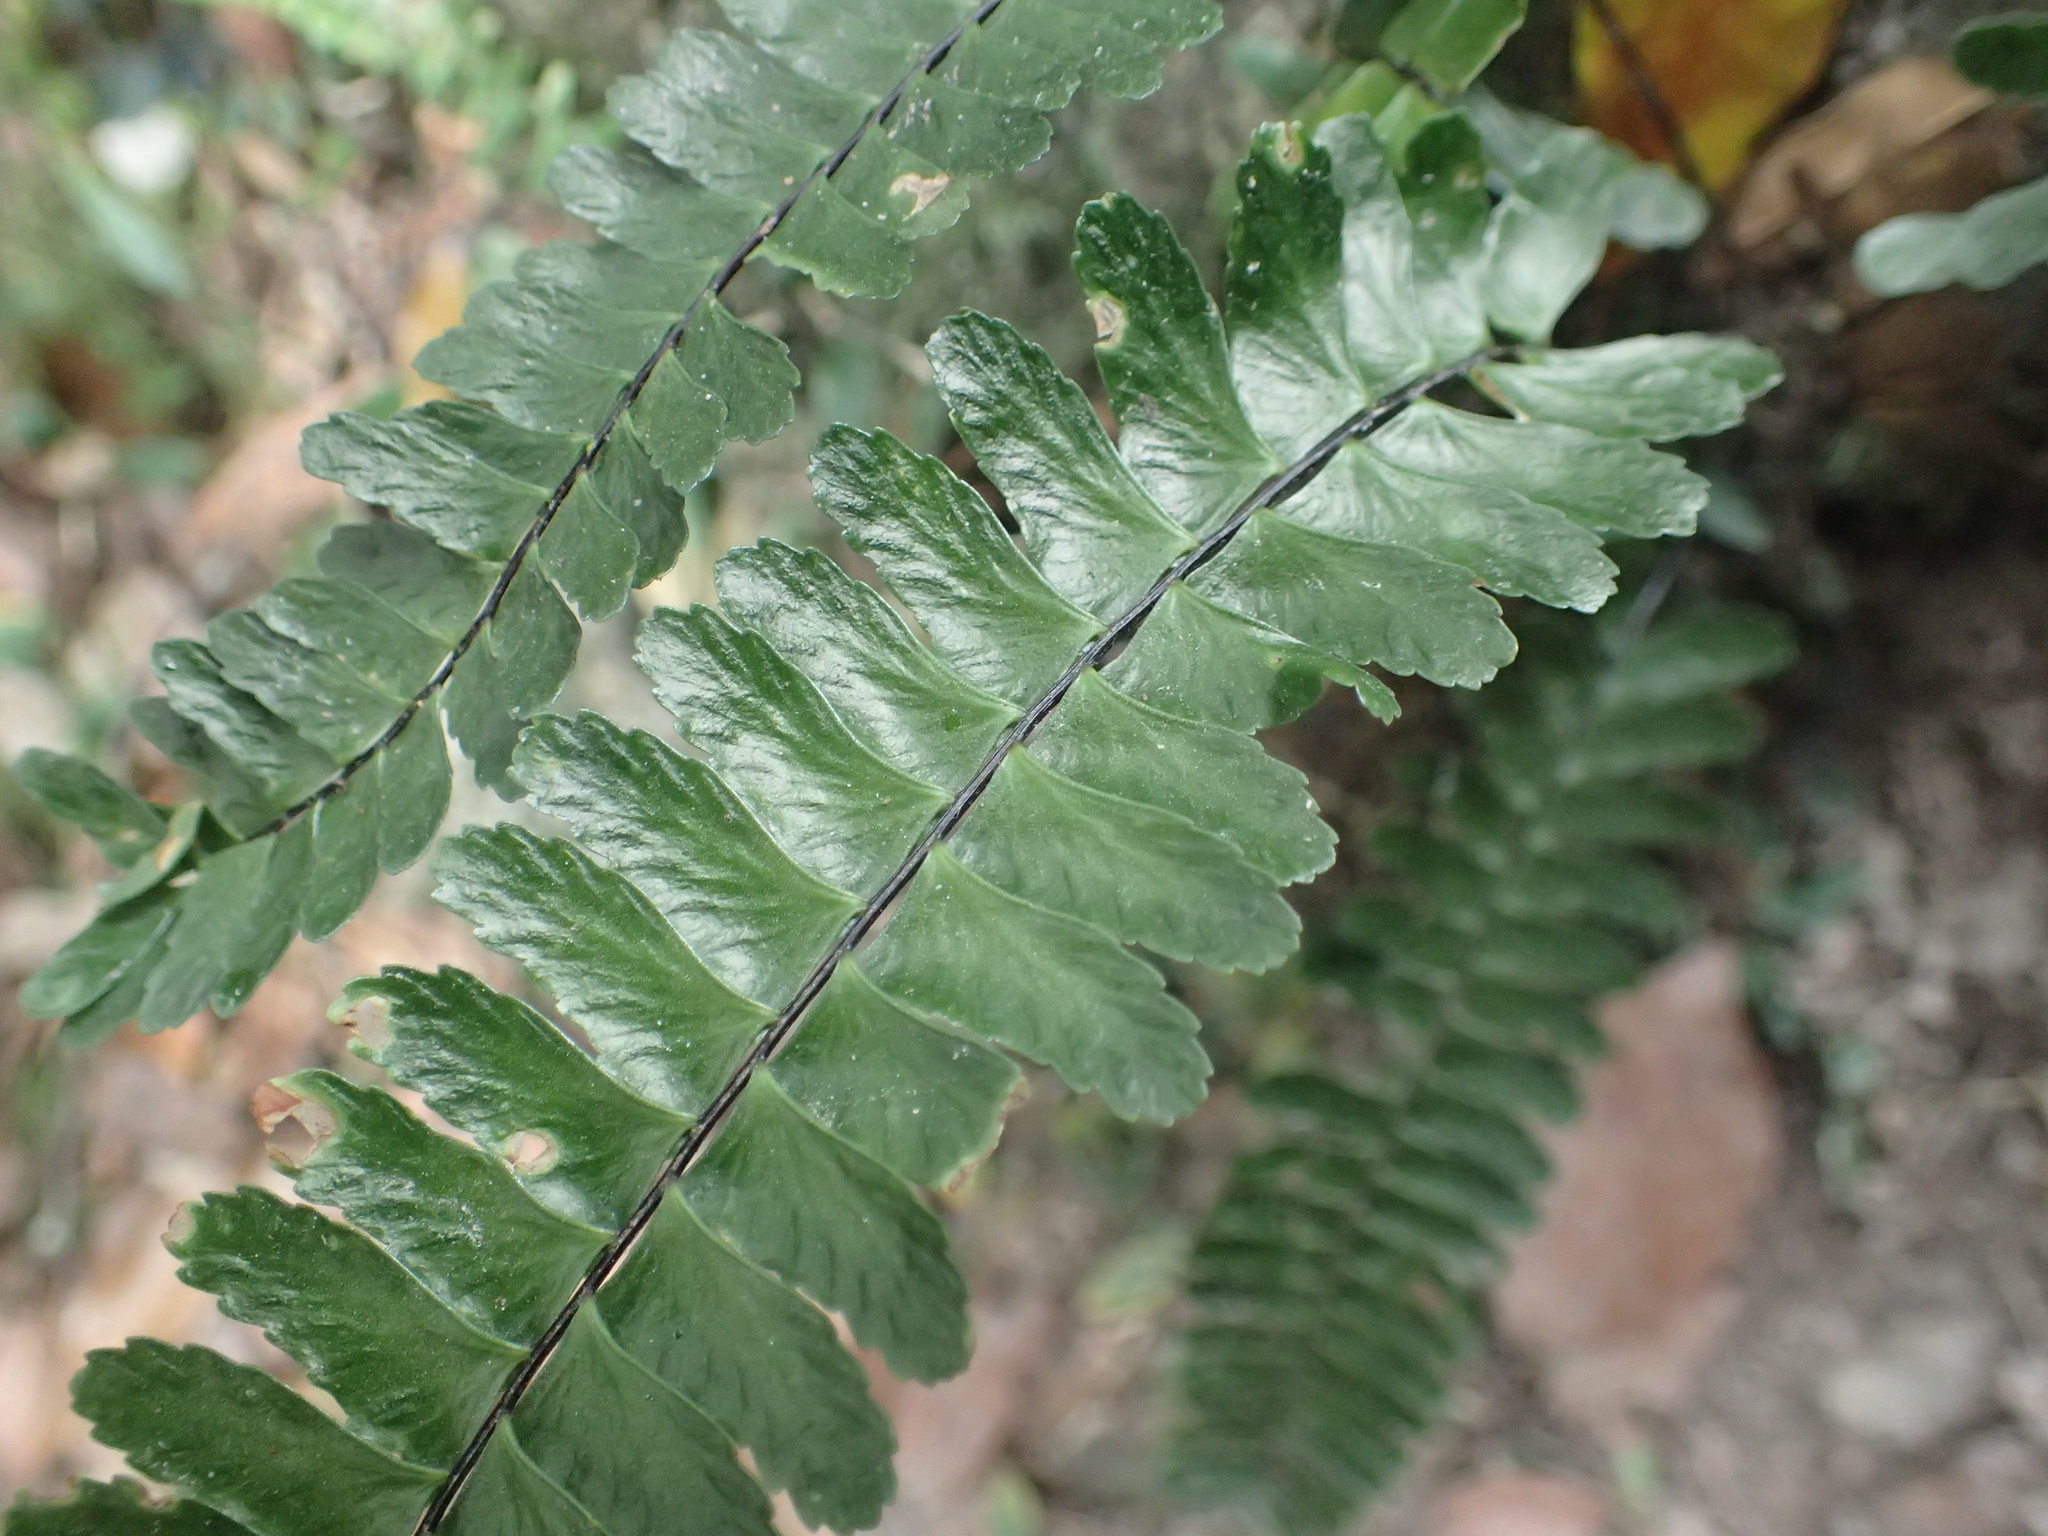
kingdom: Plantae
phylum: Tracheophyta
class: Polypodiopsida
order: Polypodiales
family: Aspleniaceae
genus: Asplenium
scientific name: Asplenium normale
